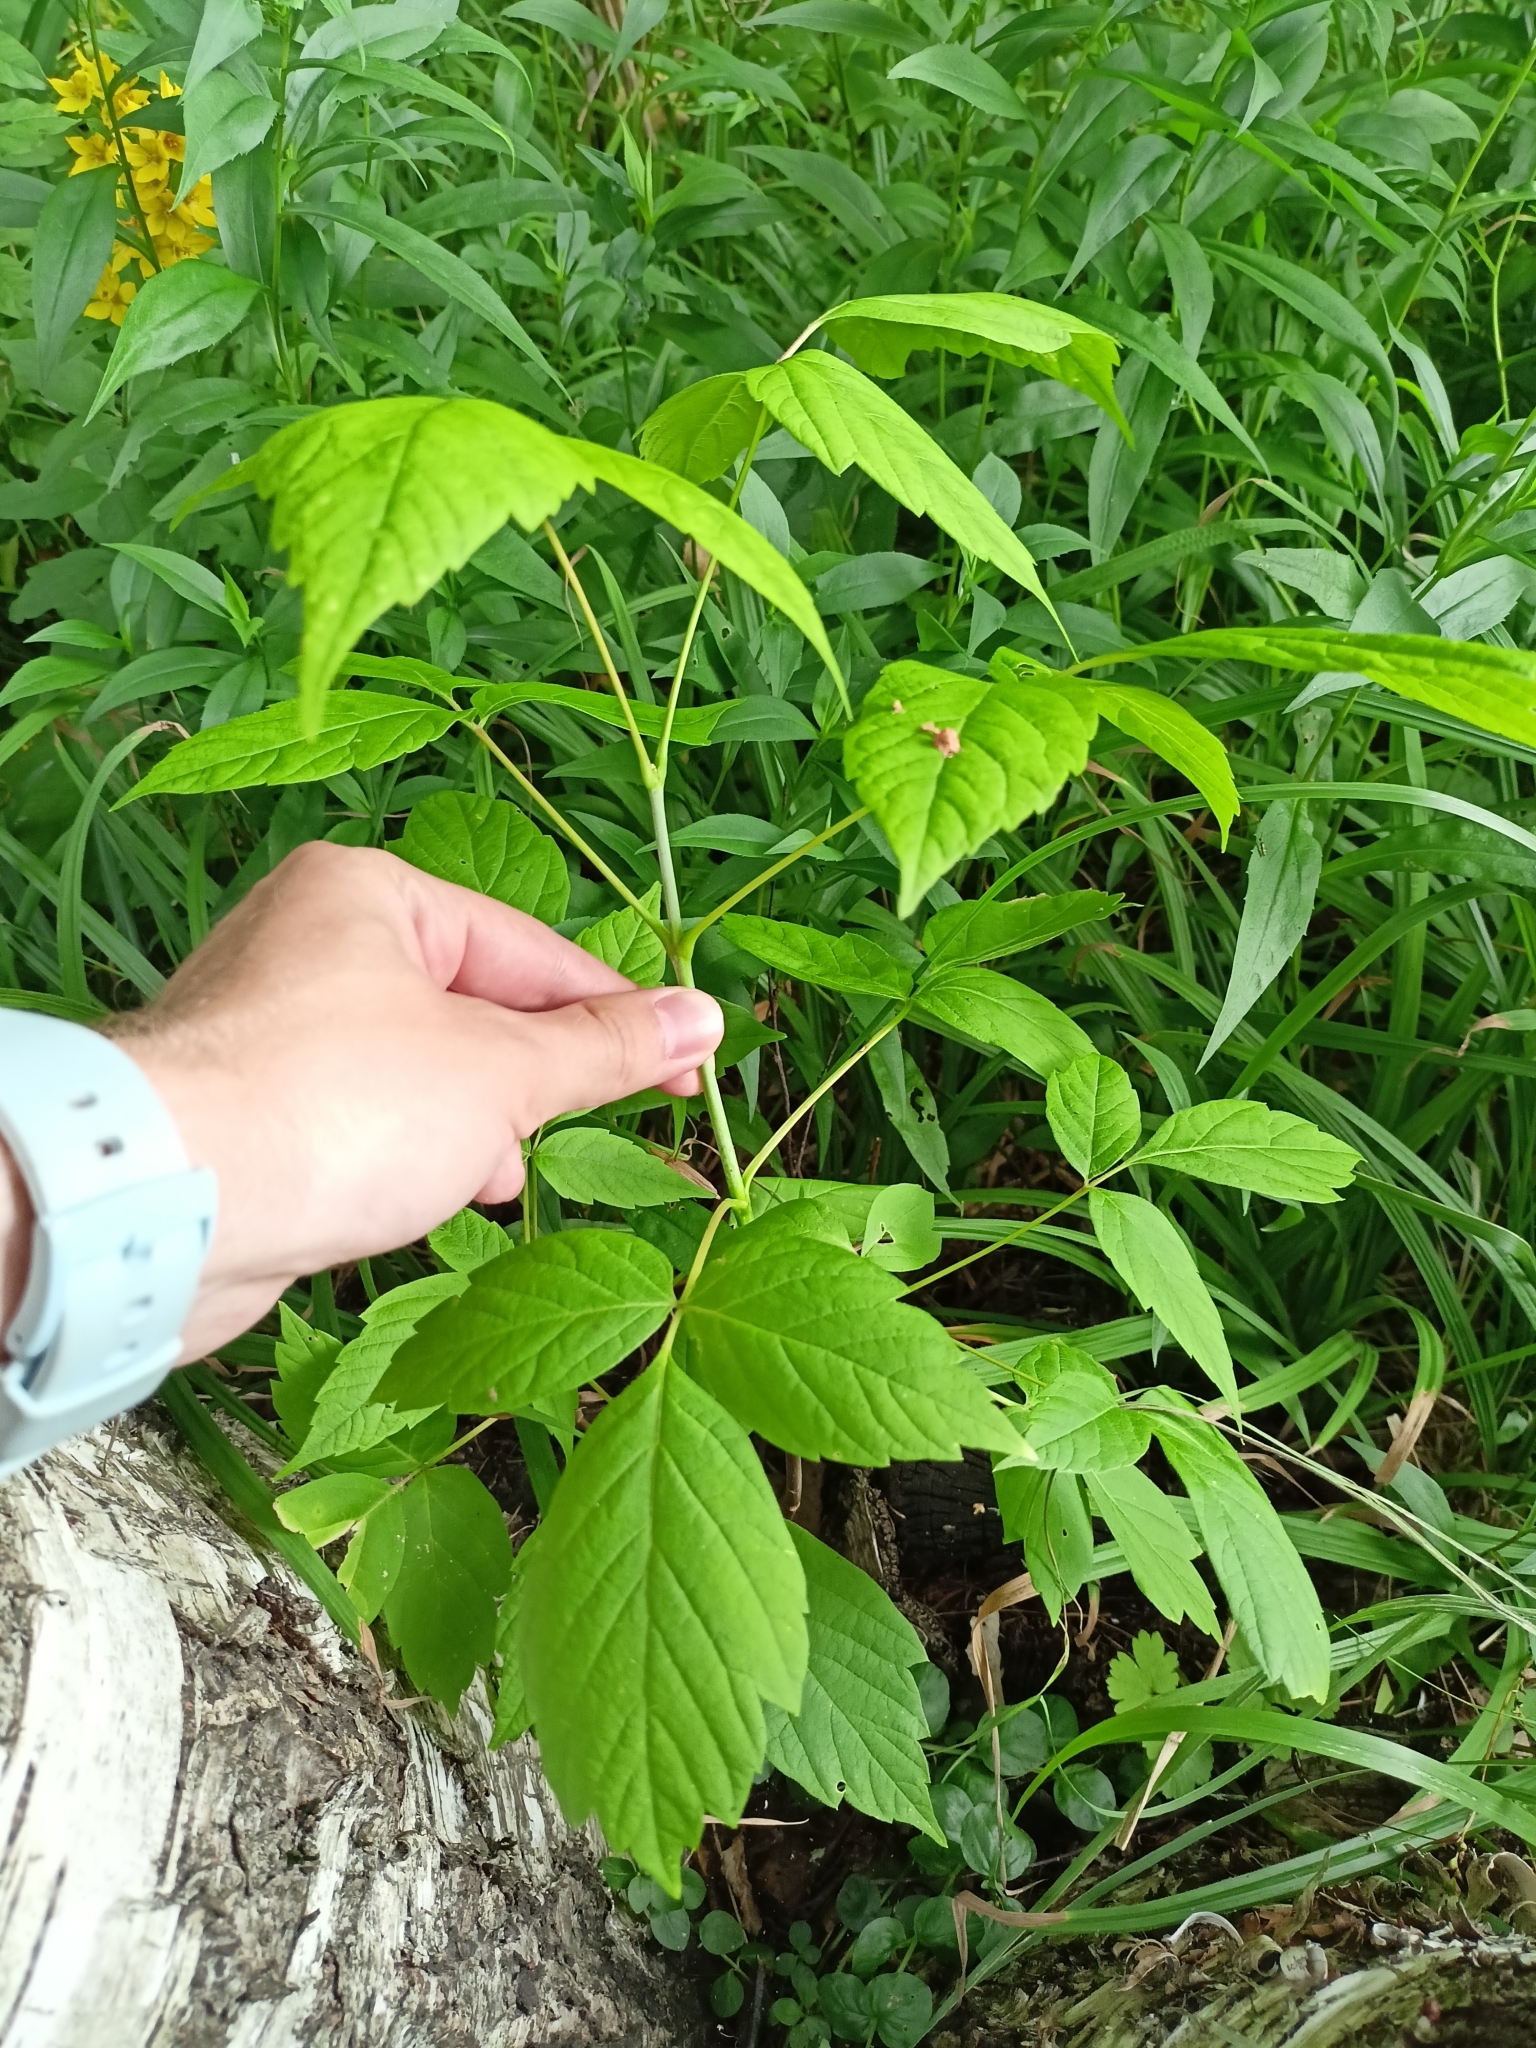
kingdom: Plantae
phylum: Tracheophyta
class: Magnoliopsida
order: Sapindales
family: Sapindaceae
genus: Acer
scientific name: Acer negundo
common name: Ashleaf maple
